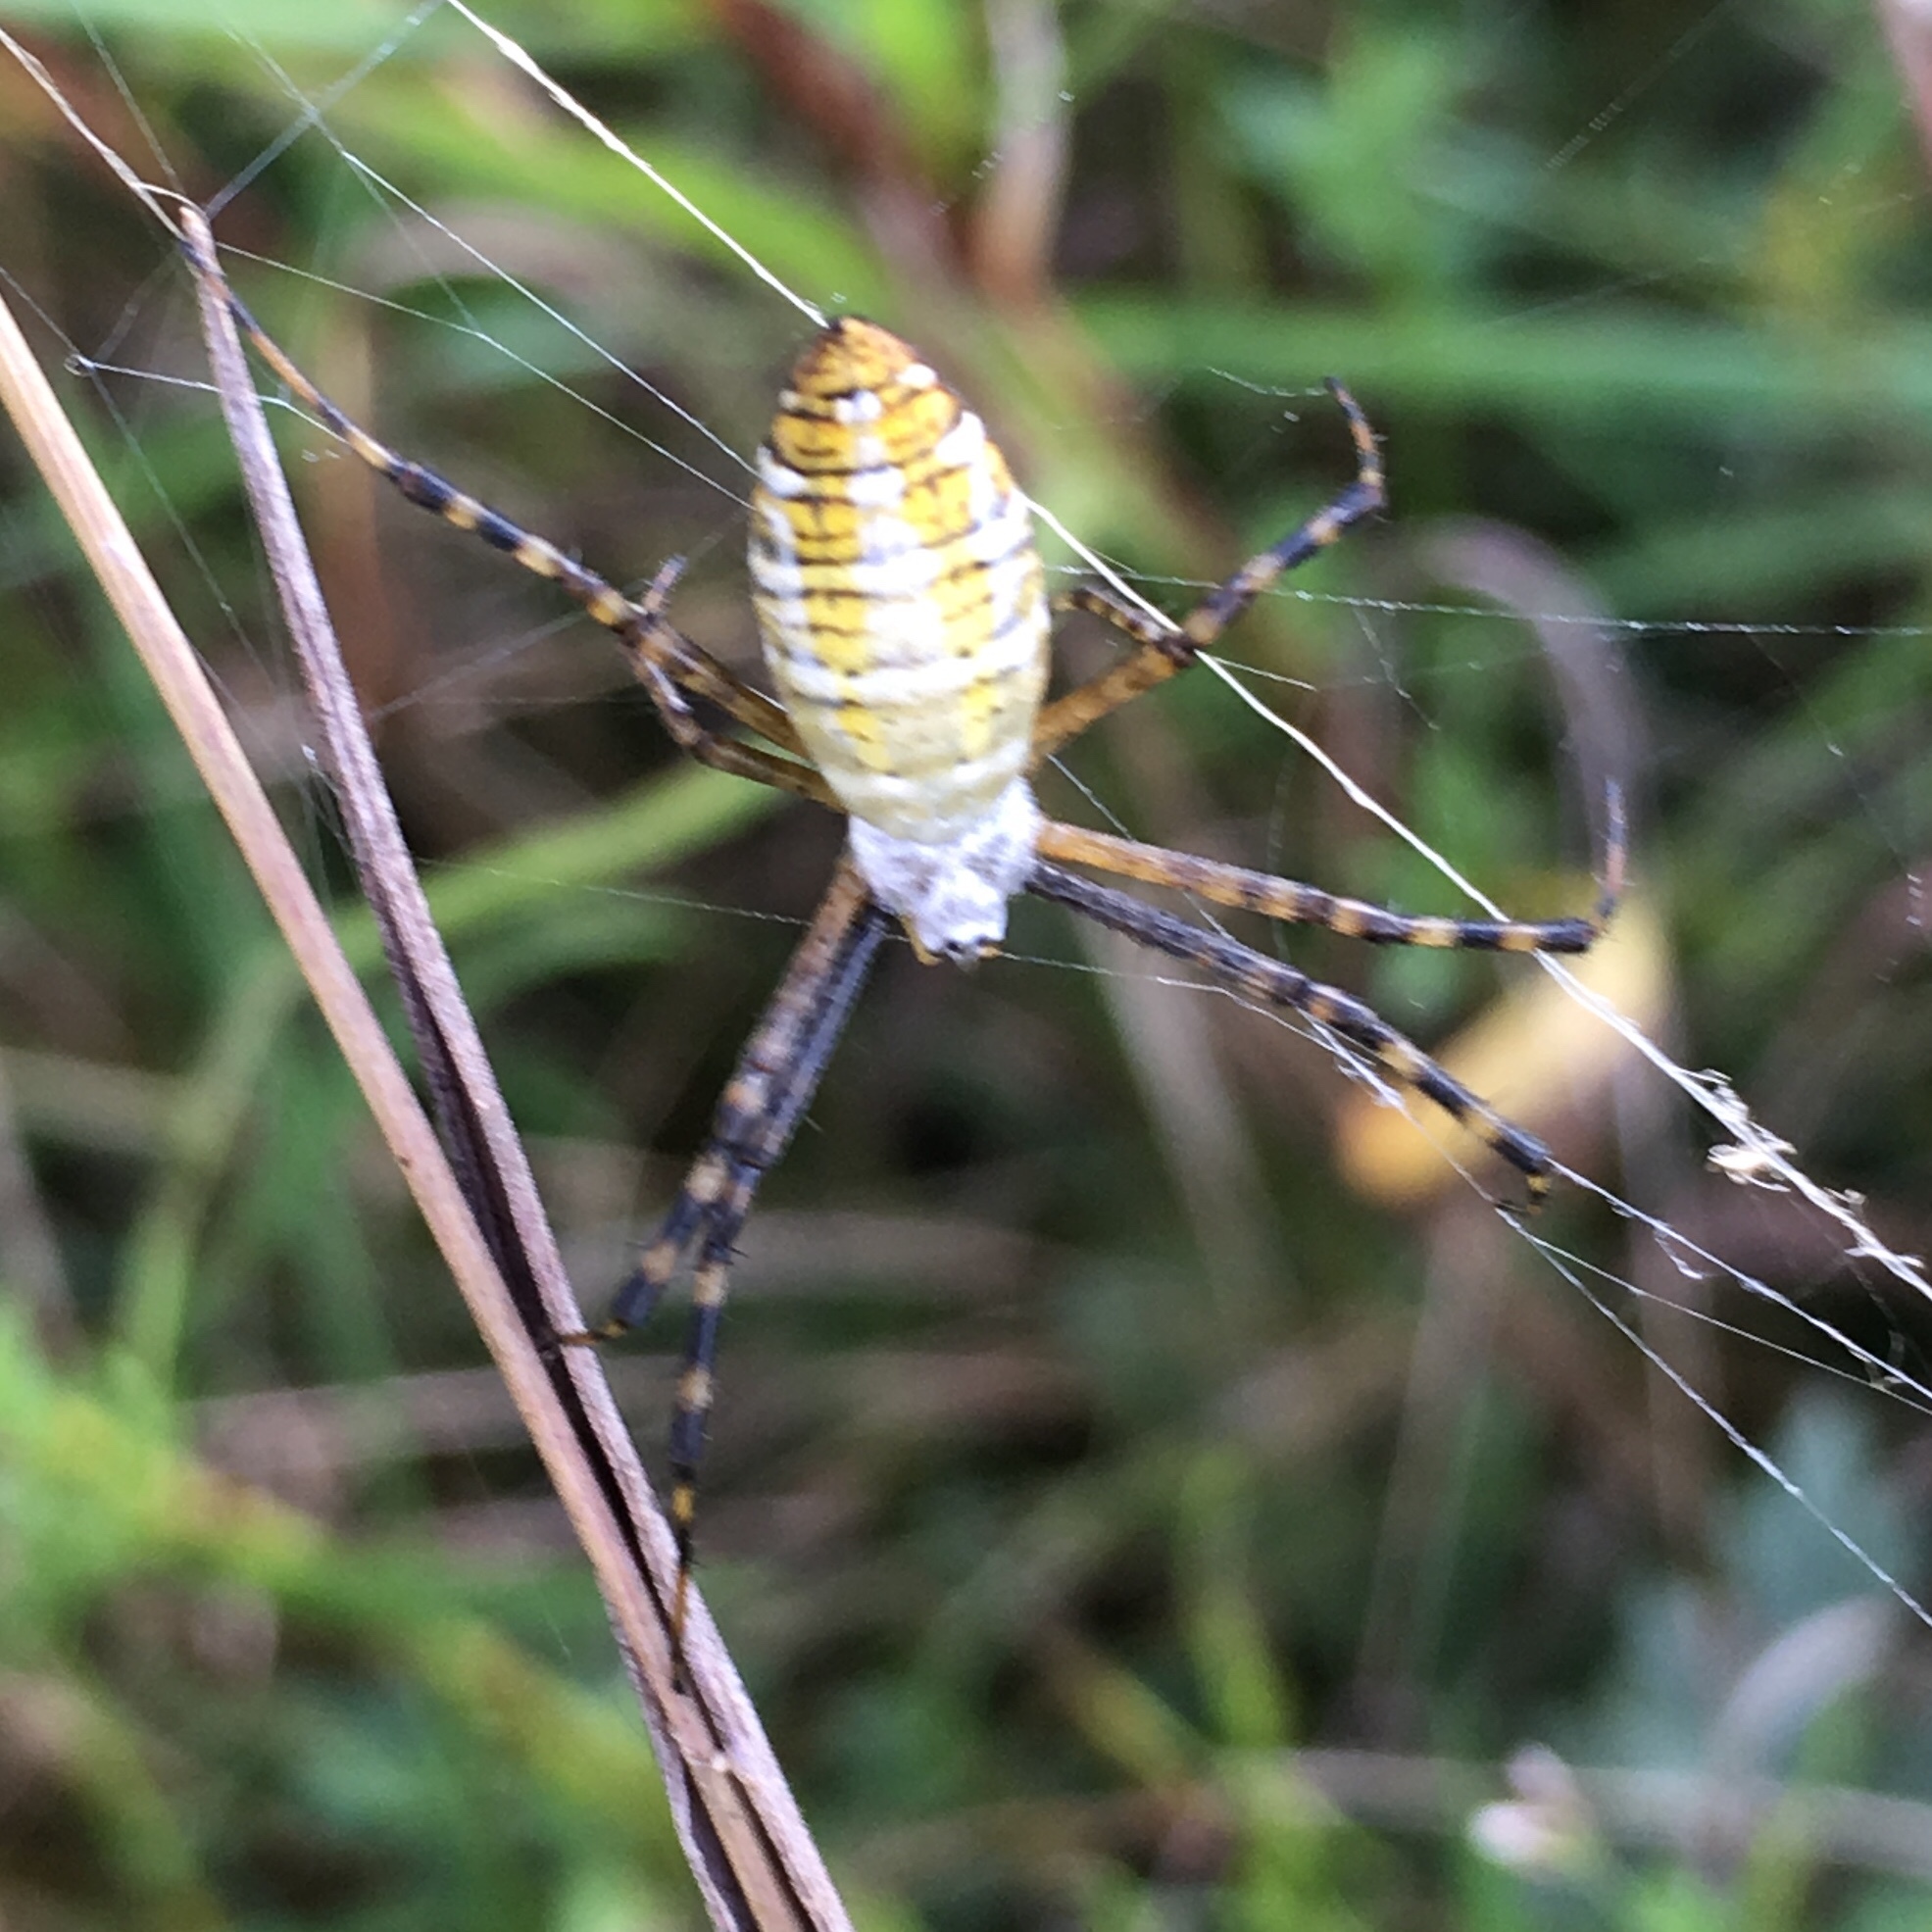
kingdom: Animalia
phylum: Arthropoda
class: Arachnida
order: Araneae
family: Araneidae
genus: Argiope
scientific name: Argiope trifasciata
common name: Banded garden spider
